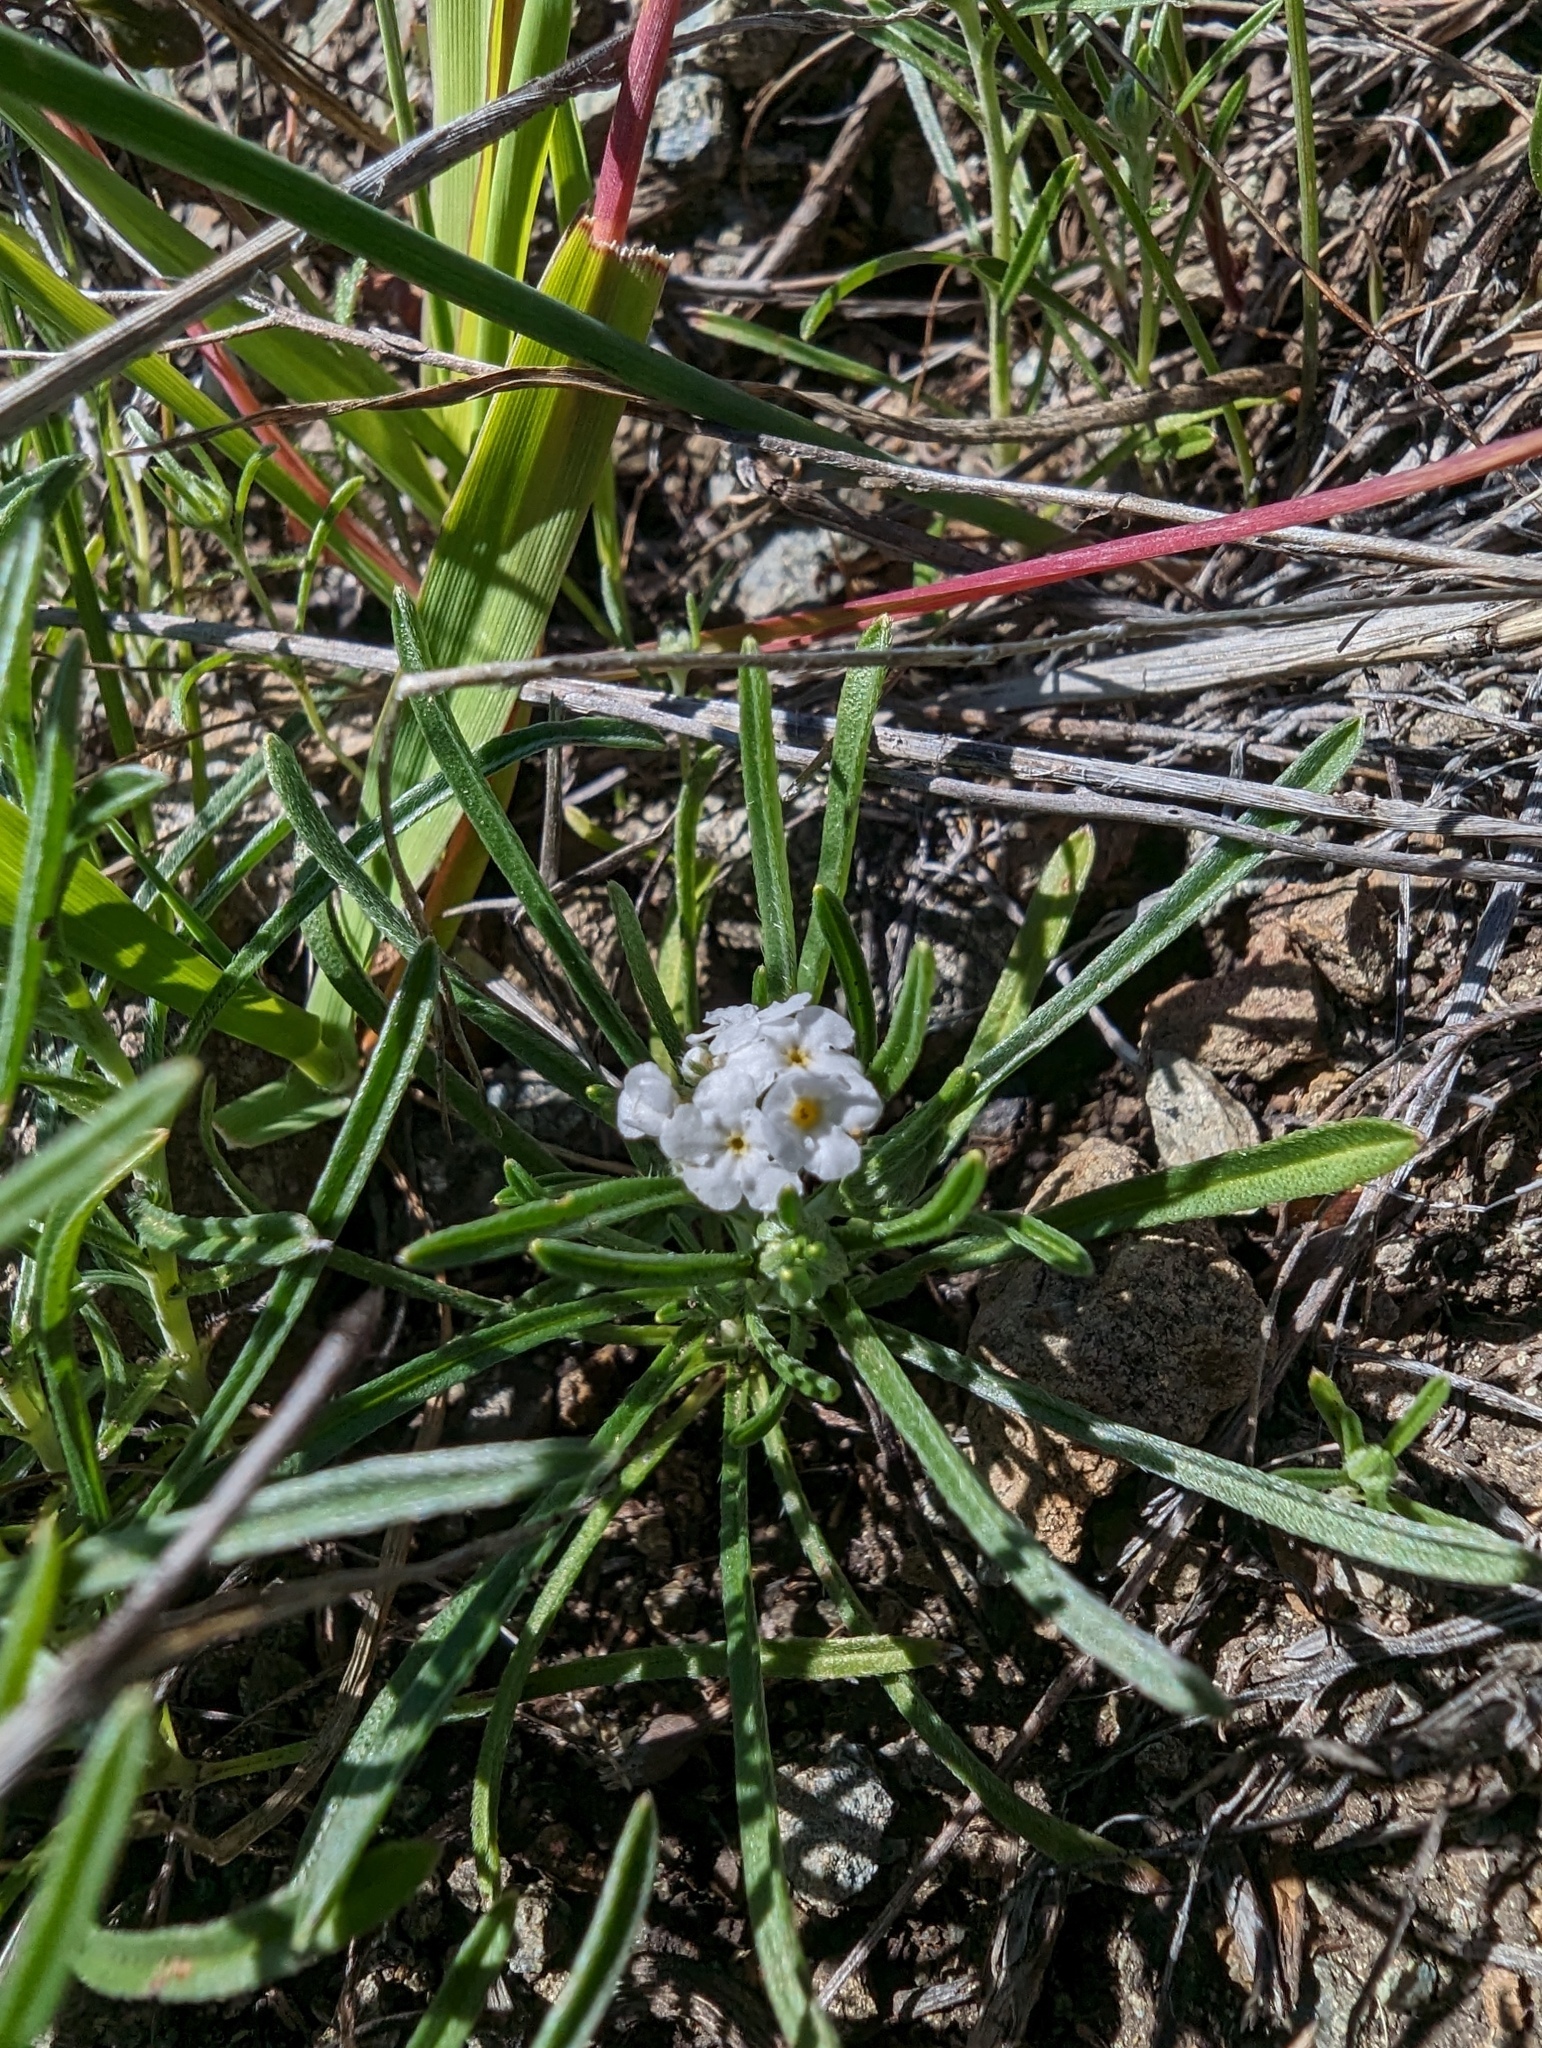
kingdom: Plantae
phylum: Tracheophyta
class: Magnoliopsida
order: Boraginales
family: Boraginaceae
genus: Cryptantha
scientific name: Cryptantha flaccida
